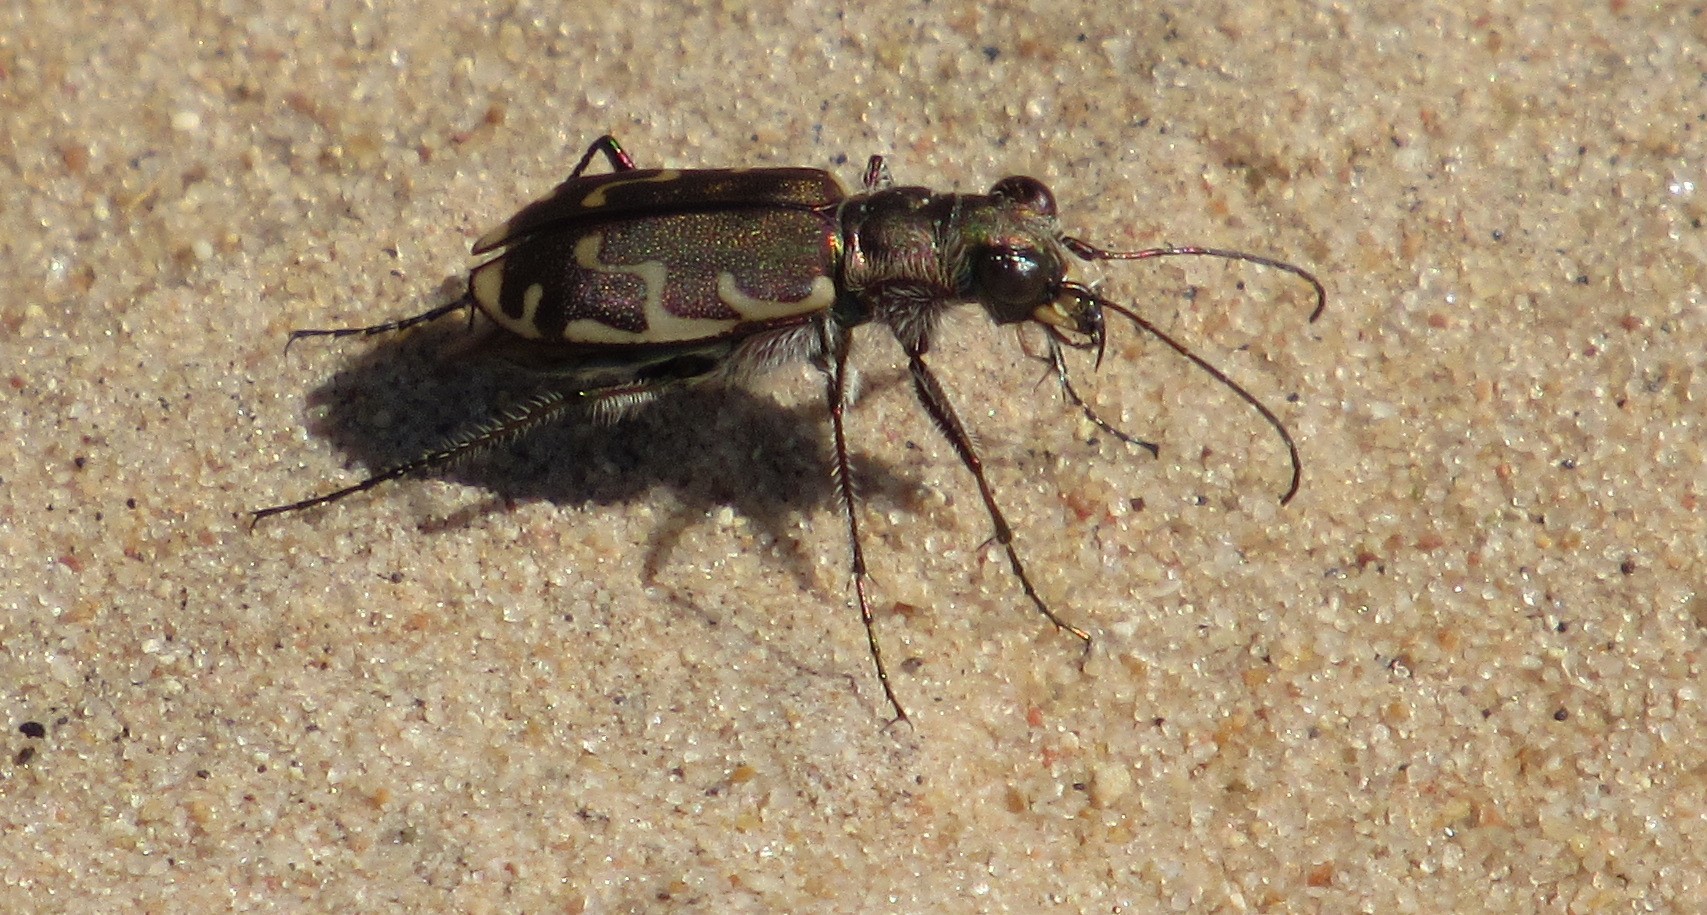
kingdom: Animalia
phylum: Arthropoda
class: Insecta
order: Coleoptera
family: Carabidae
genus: Cicindela
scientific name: Cicindela repanda
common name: Bronzed tiger beetle
